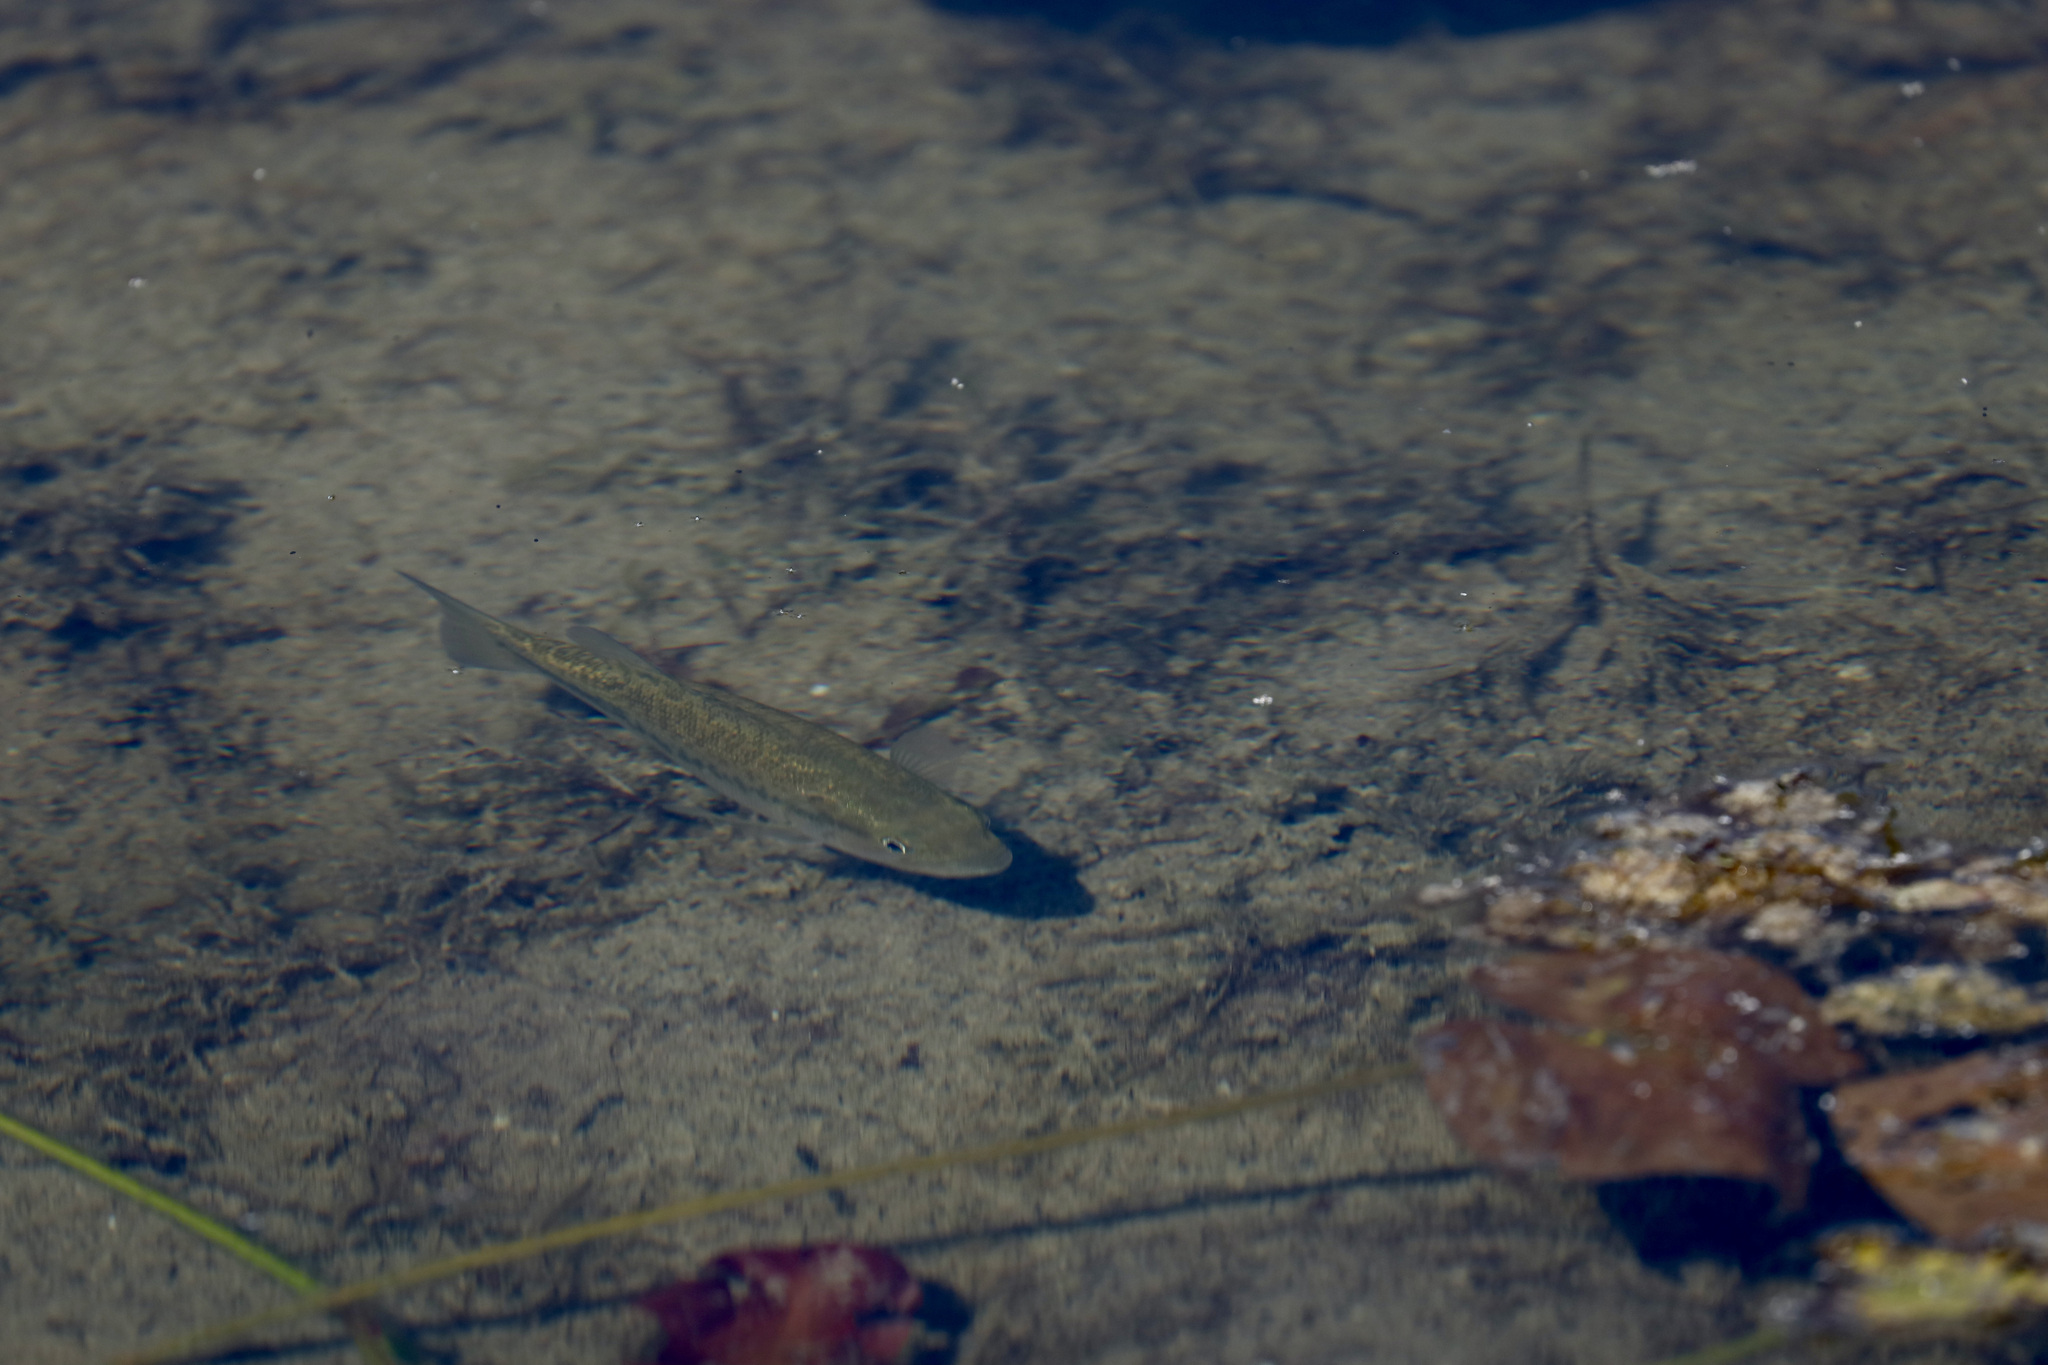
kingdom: Animalia
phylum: Chordata
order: Perciformes
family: Centrarchidae
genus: Micropterus
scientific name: Micropterus
